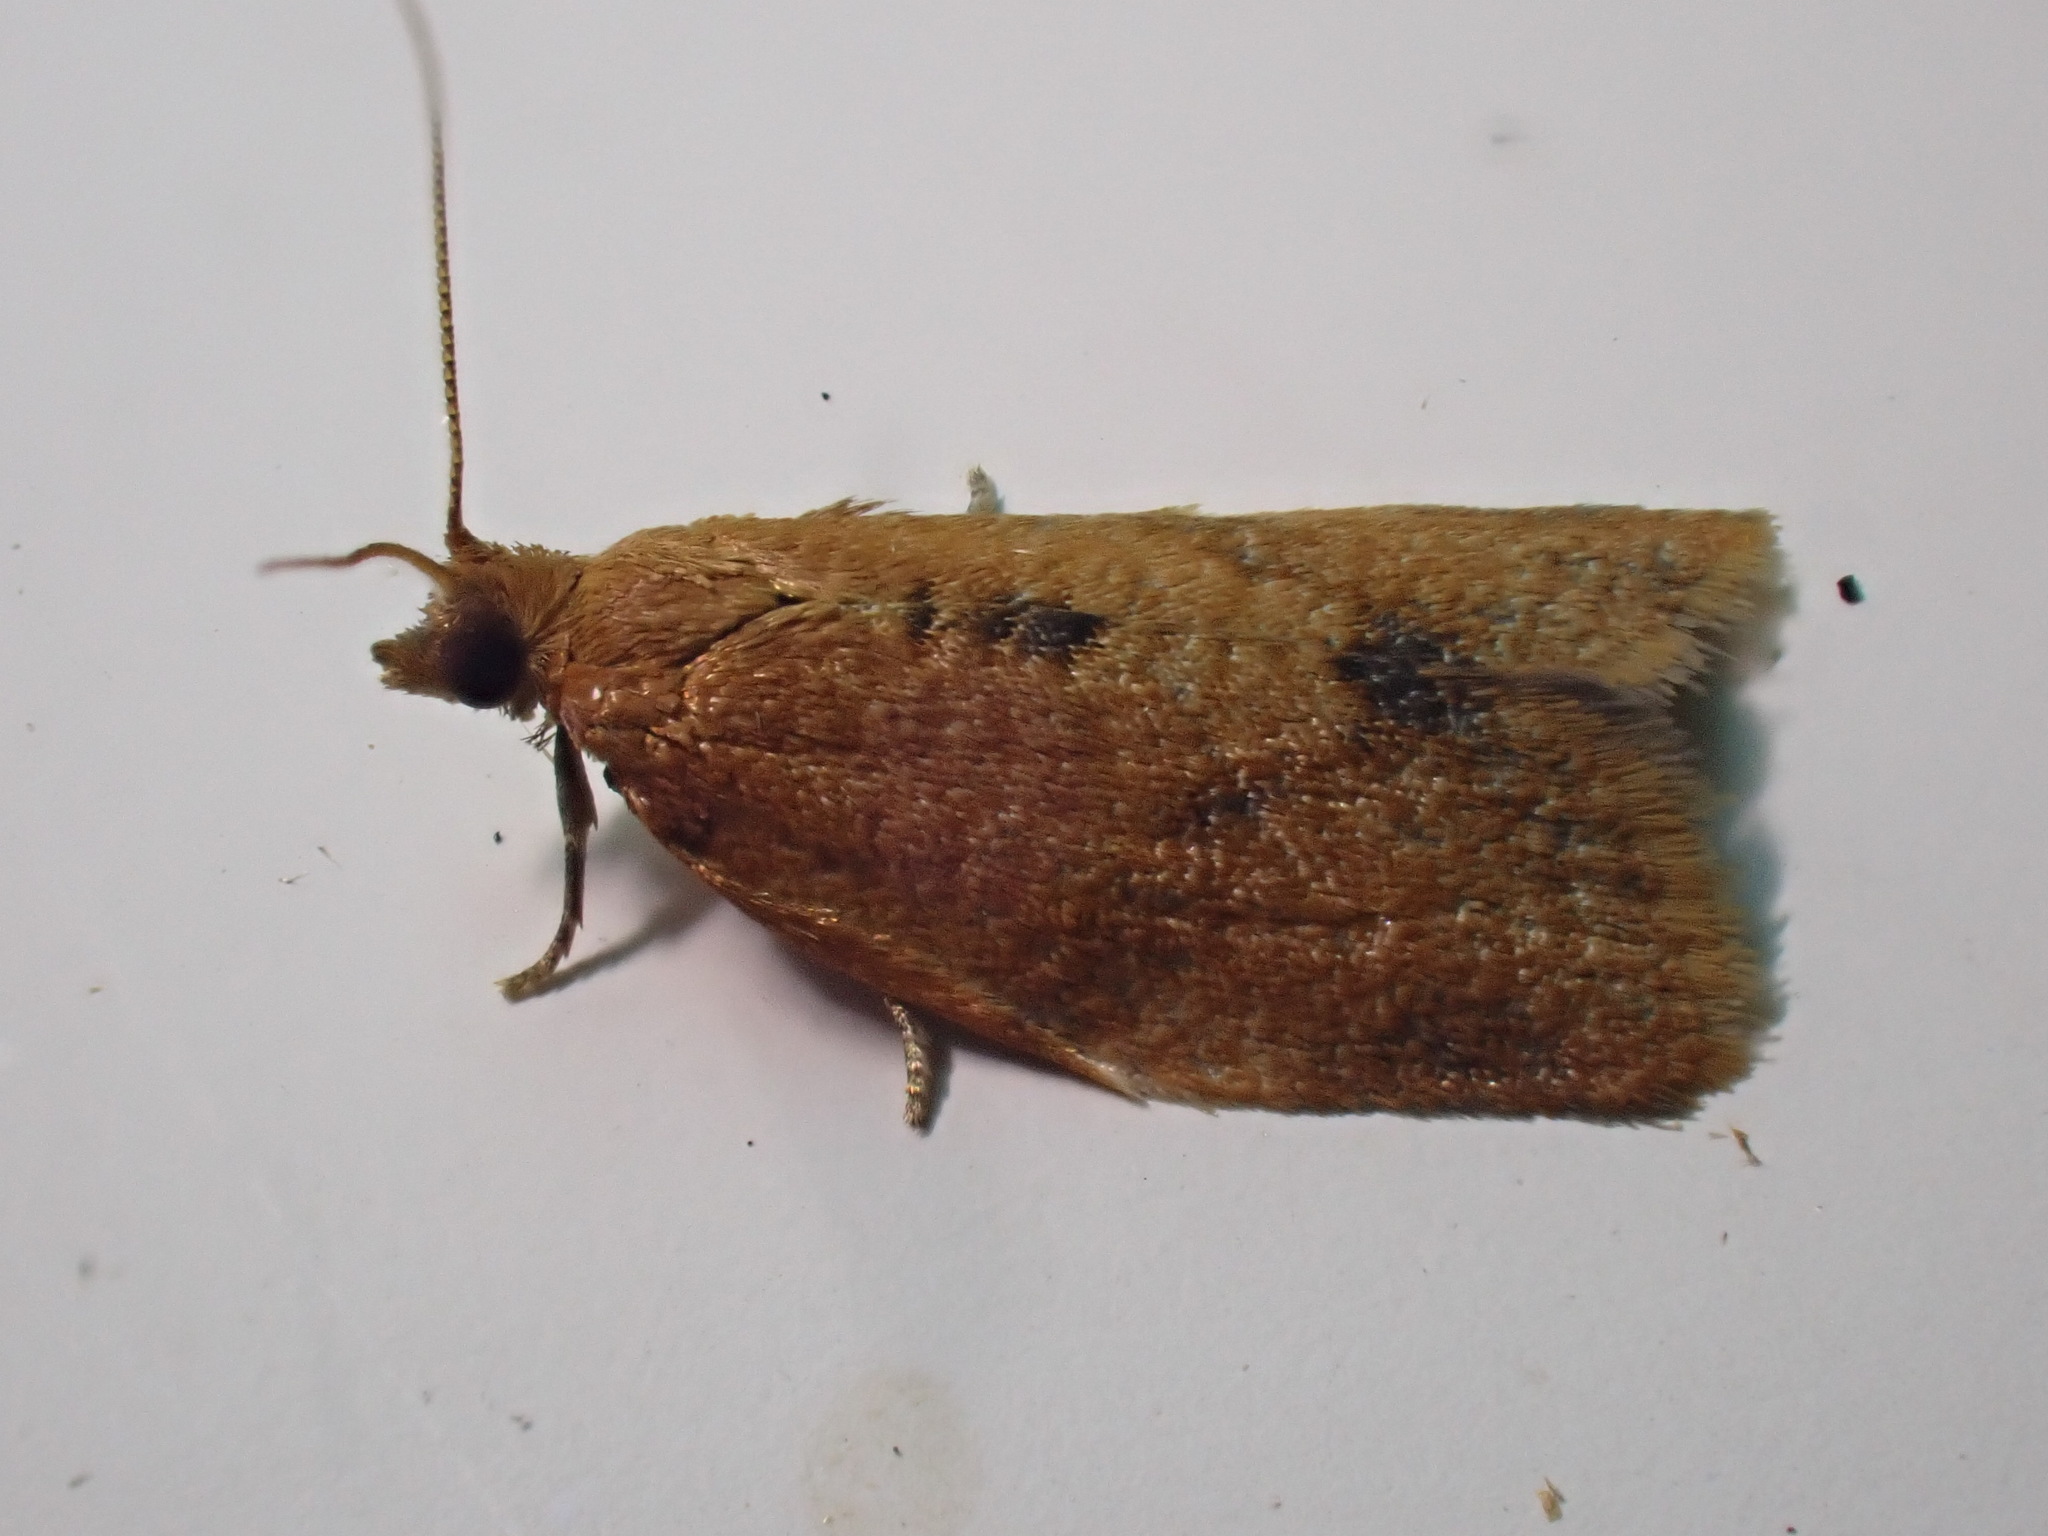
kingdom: Animalia
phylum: Arthropoda
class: Insecta
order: Lepidoptera
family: Tortricidae
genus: Clepsis
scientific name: Clepsis consimilana
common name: Privet tortrix
